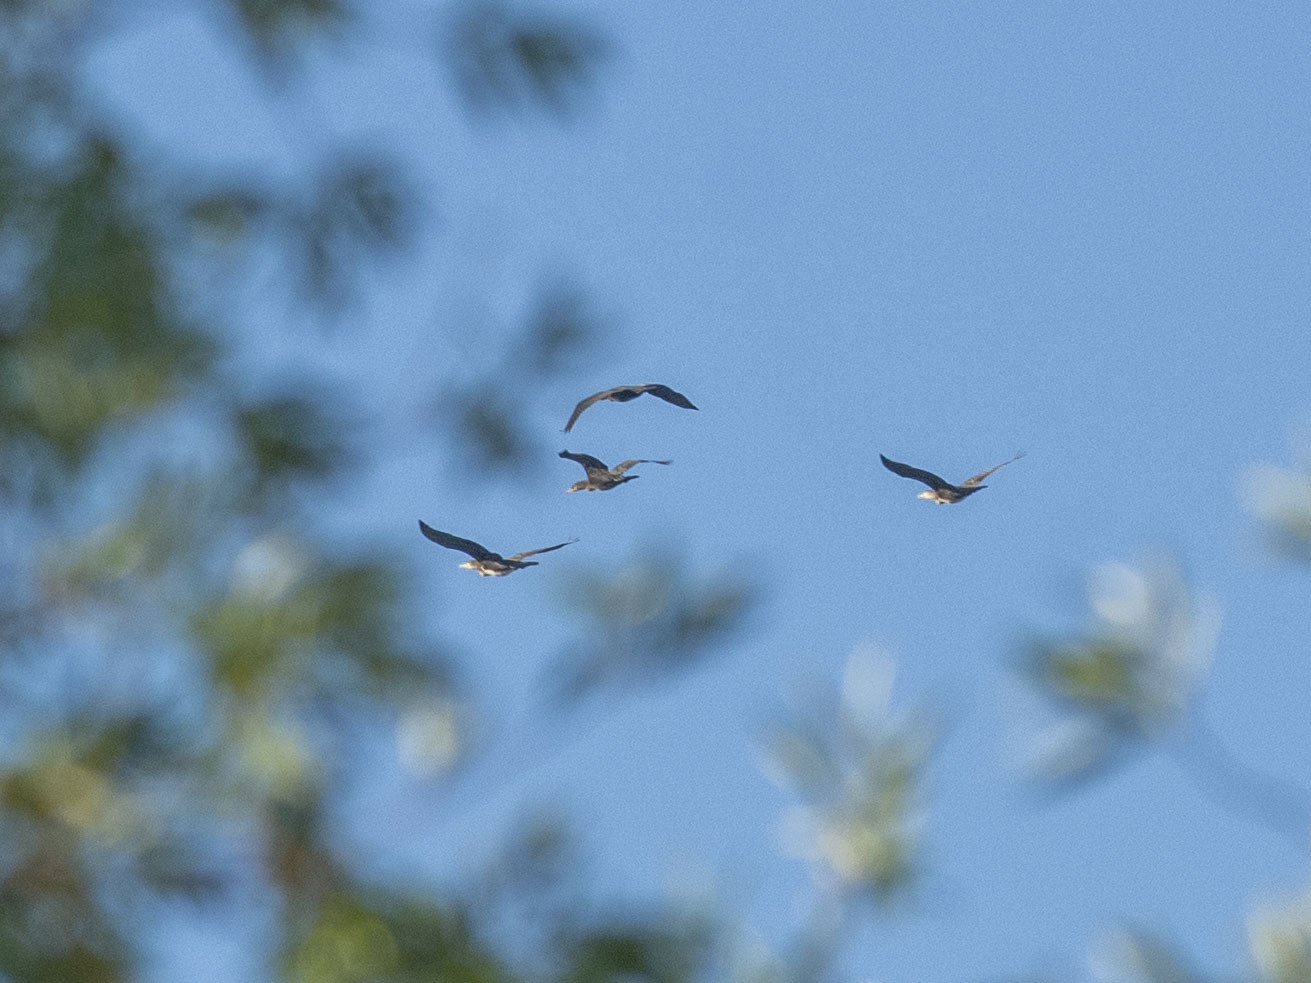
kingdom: Animalia
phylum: Chordata
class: Aves
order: Suliformes
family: Phalacrocoracidae
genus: Phalacrocorax
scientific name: Phalacrocorax carbo
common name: Great cormorant
